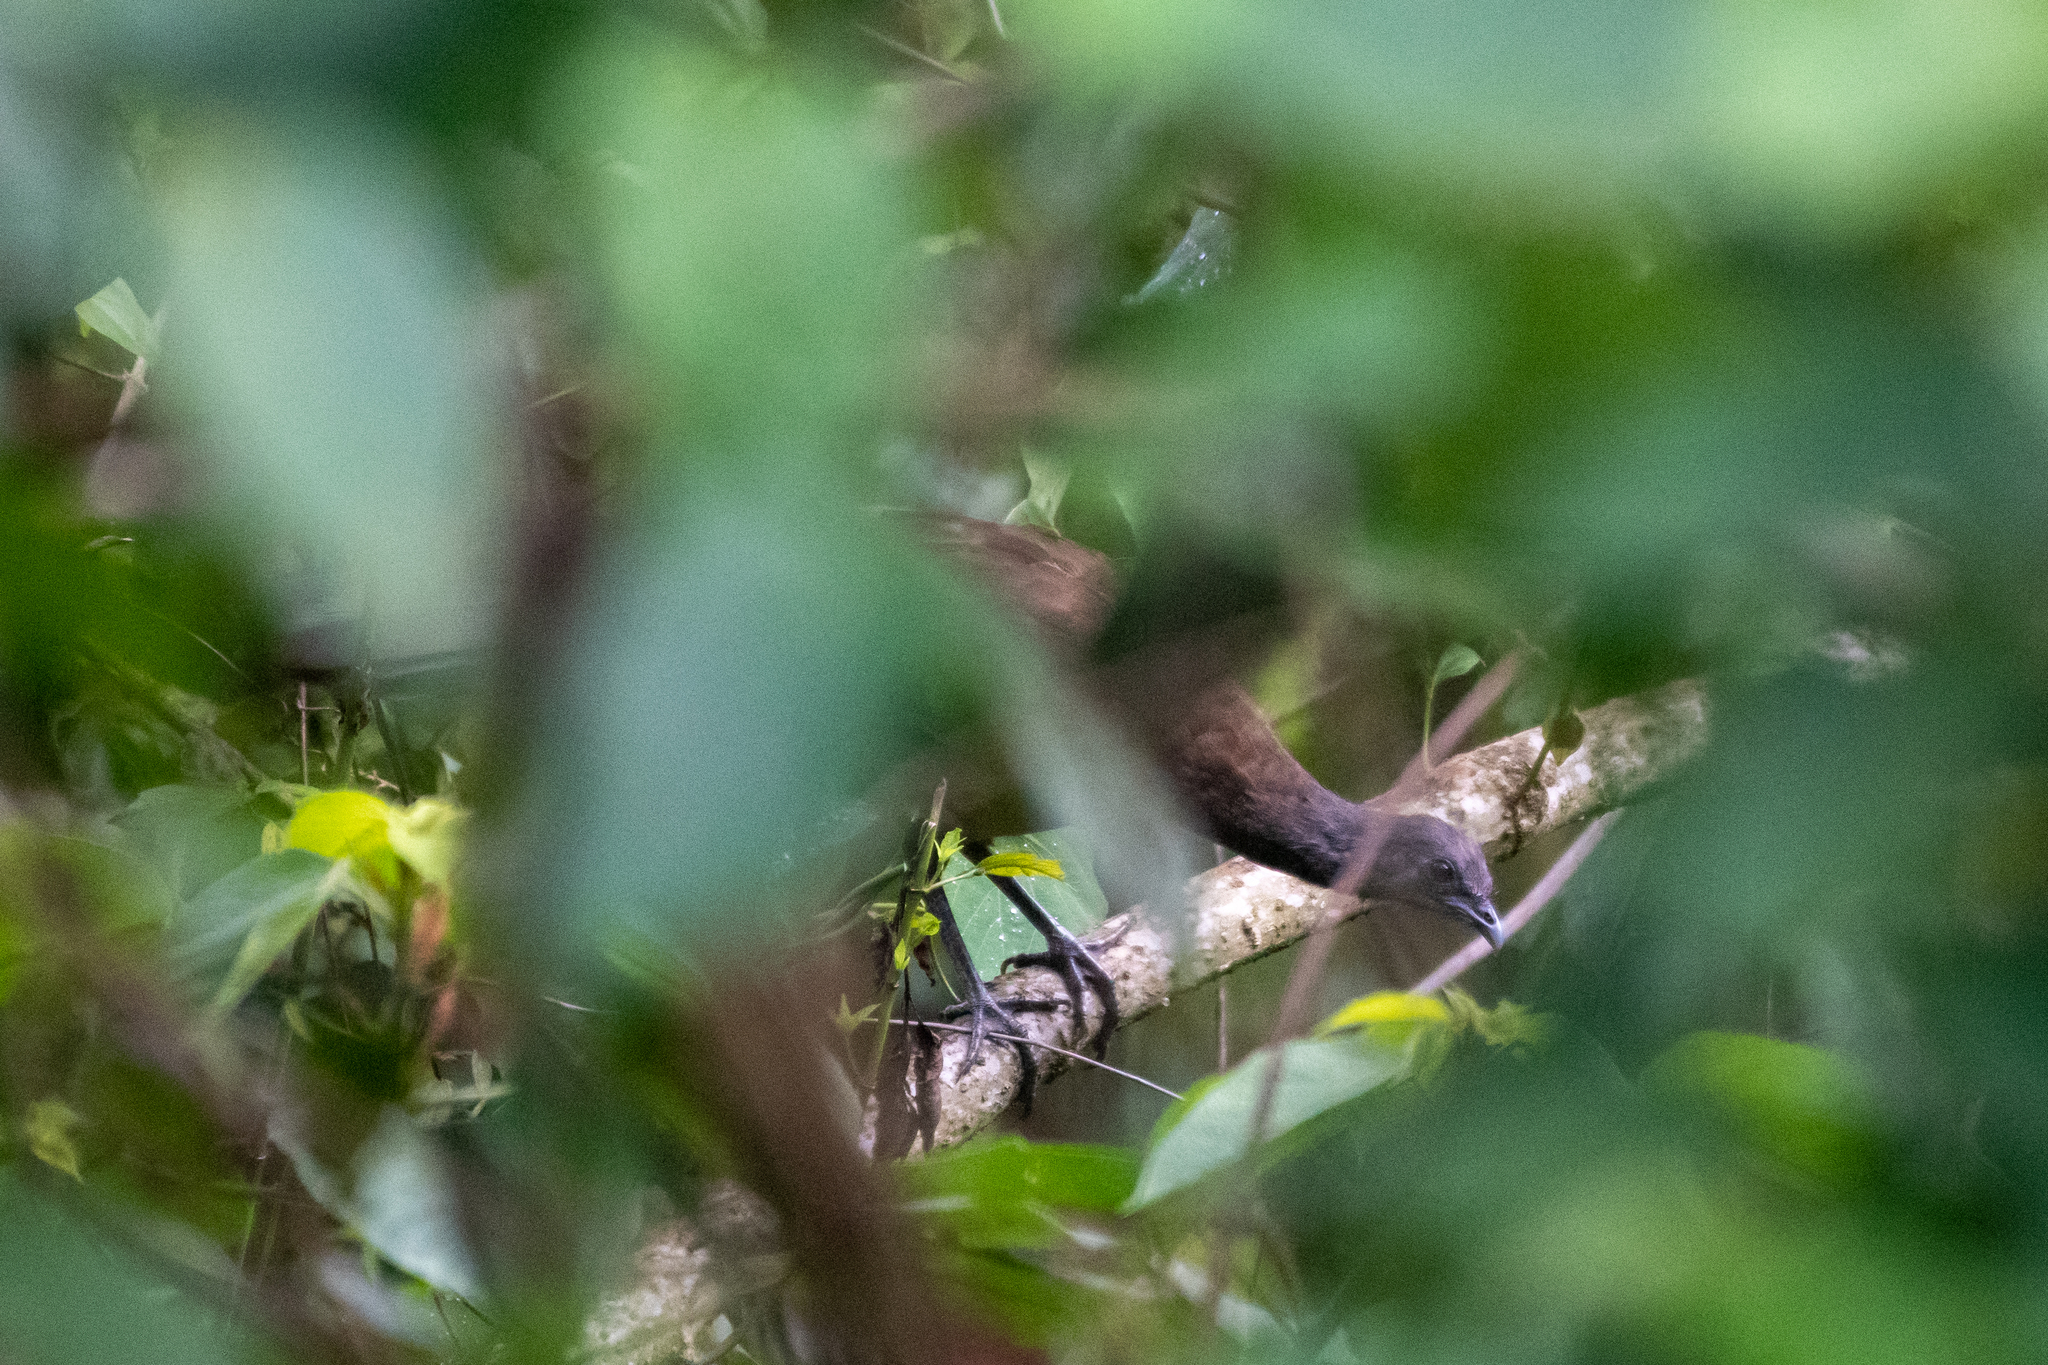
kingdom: Animalia
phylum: Chordata
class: Aves
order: Galliformes
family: Cracidae
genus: Ortalis
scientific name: Ortalis vetula
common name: Plain chachalaca
